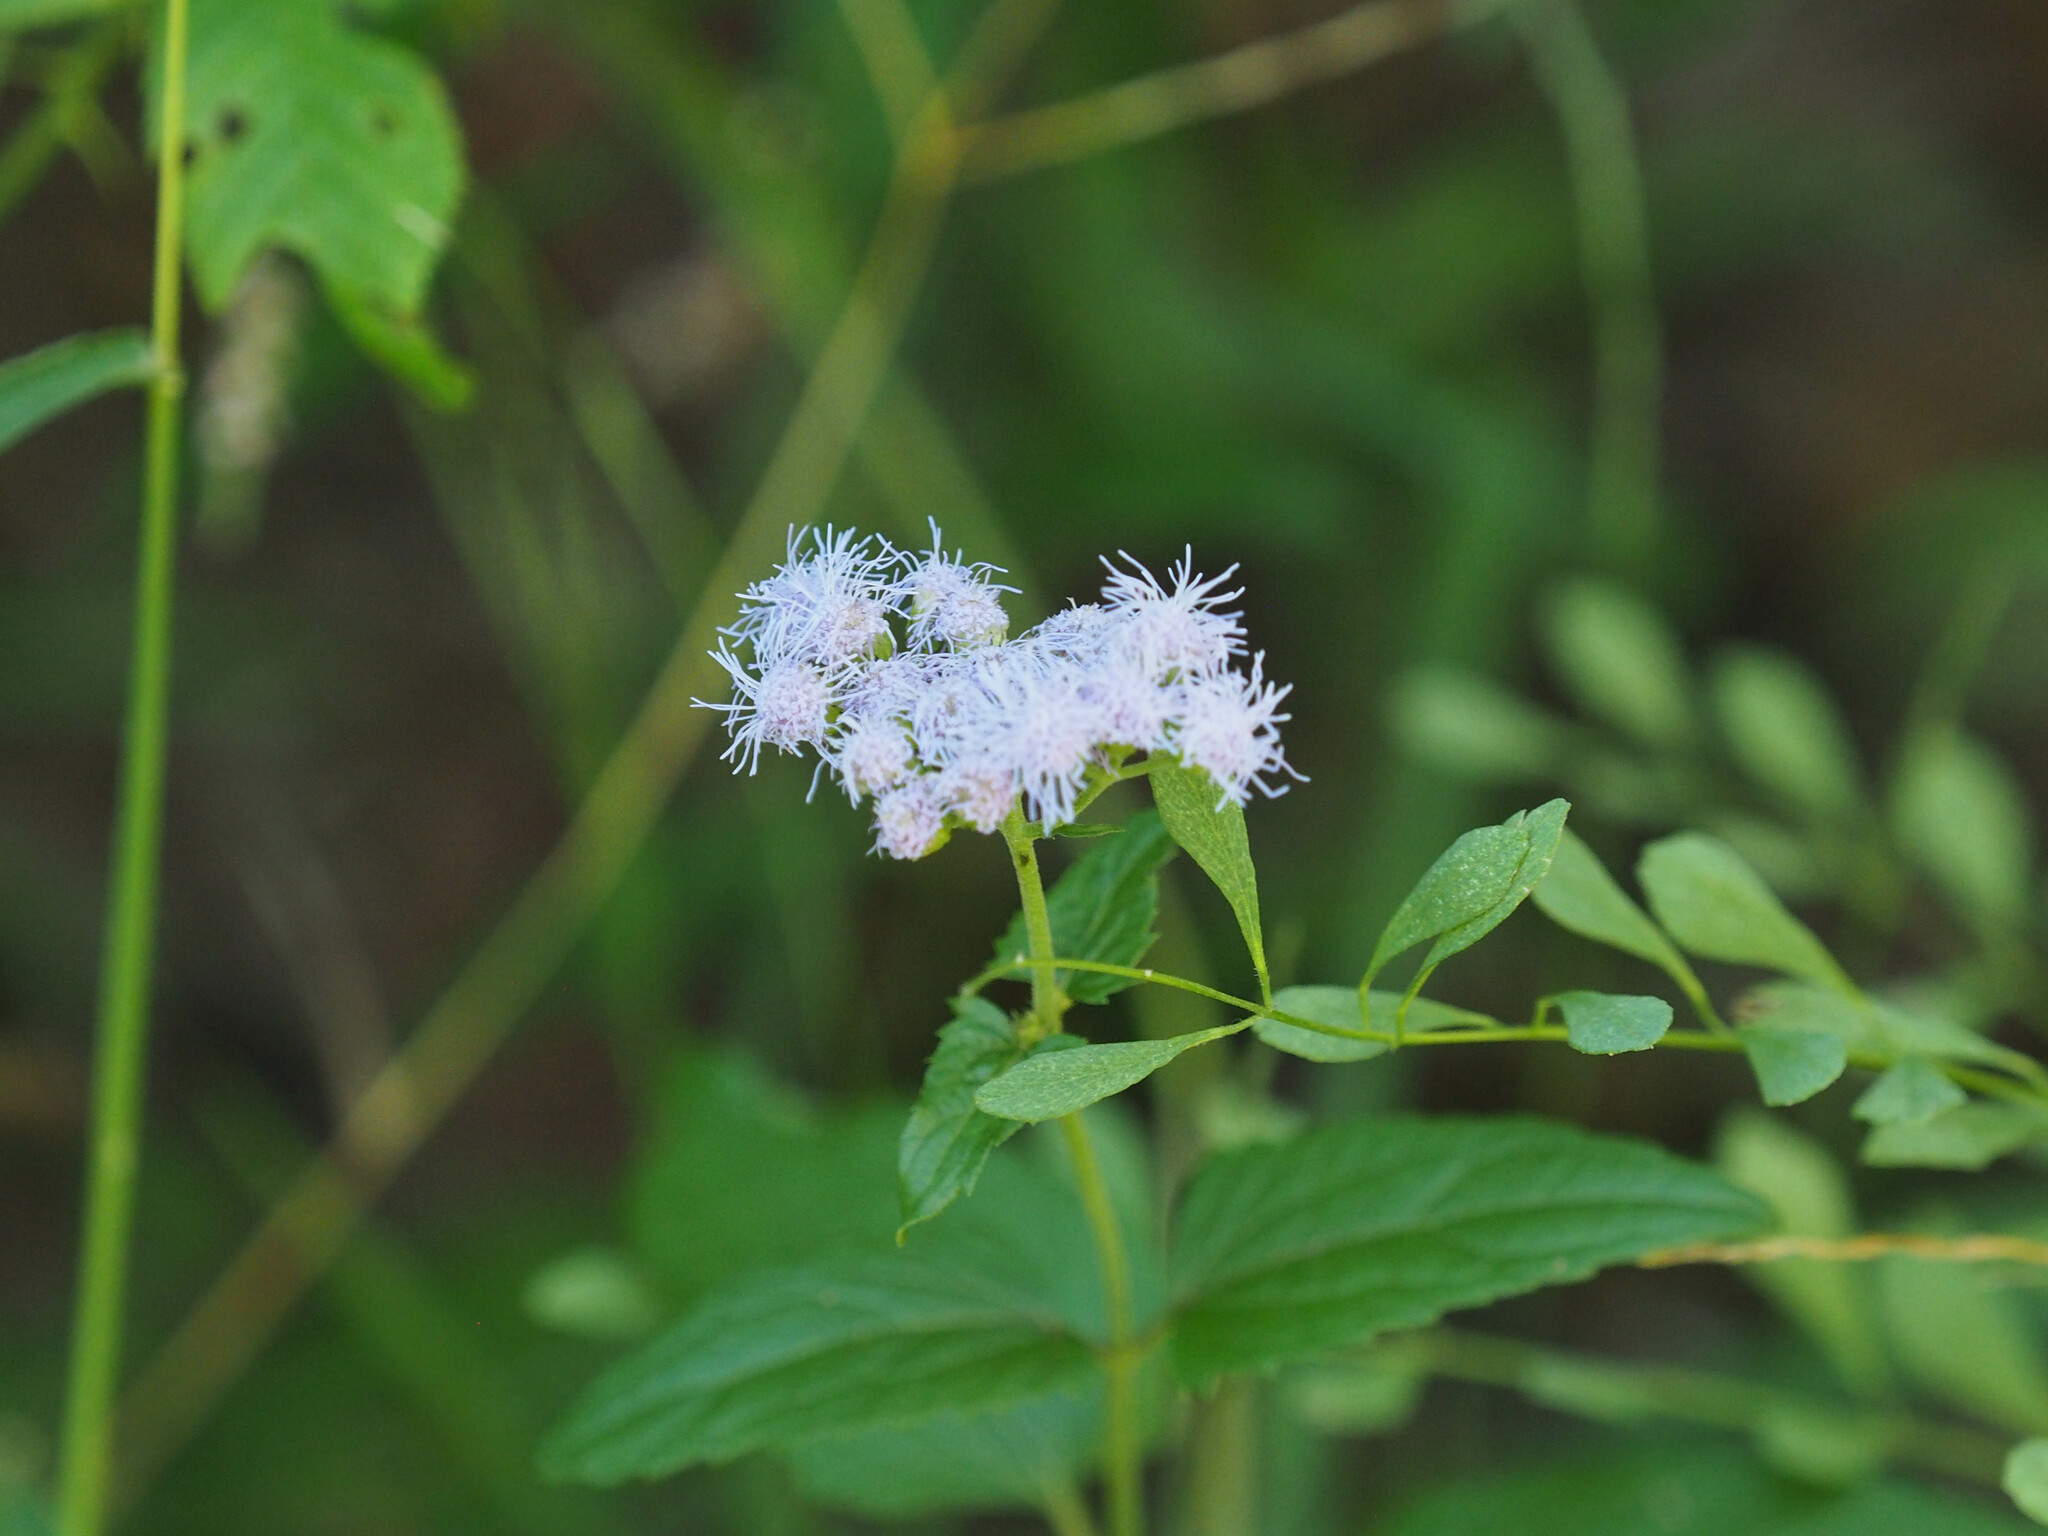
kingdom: Plantae
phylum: Tracheophyta
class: Magnoliopsida
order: Asterales
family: Asteraceae
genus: Conoclinium
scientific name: Conoclinium coelestinum
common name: Blue mistflower
